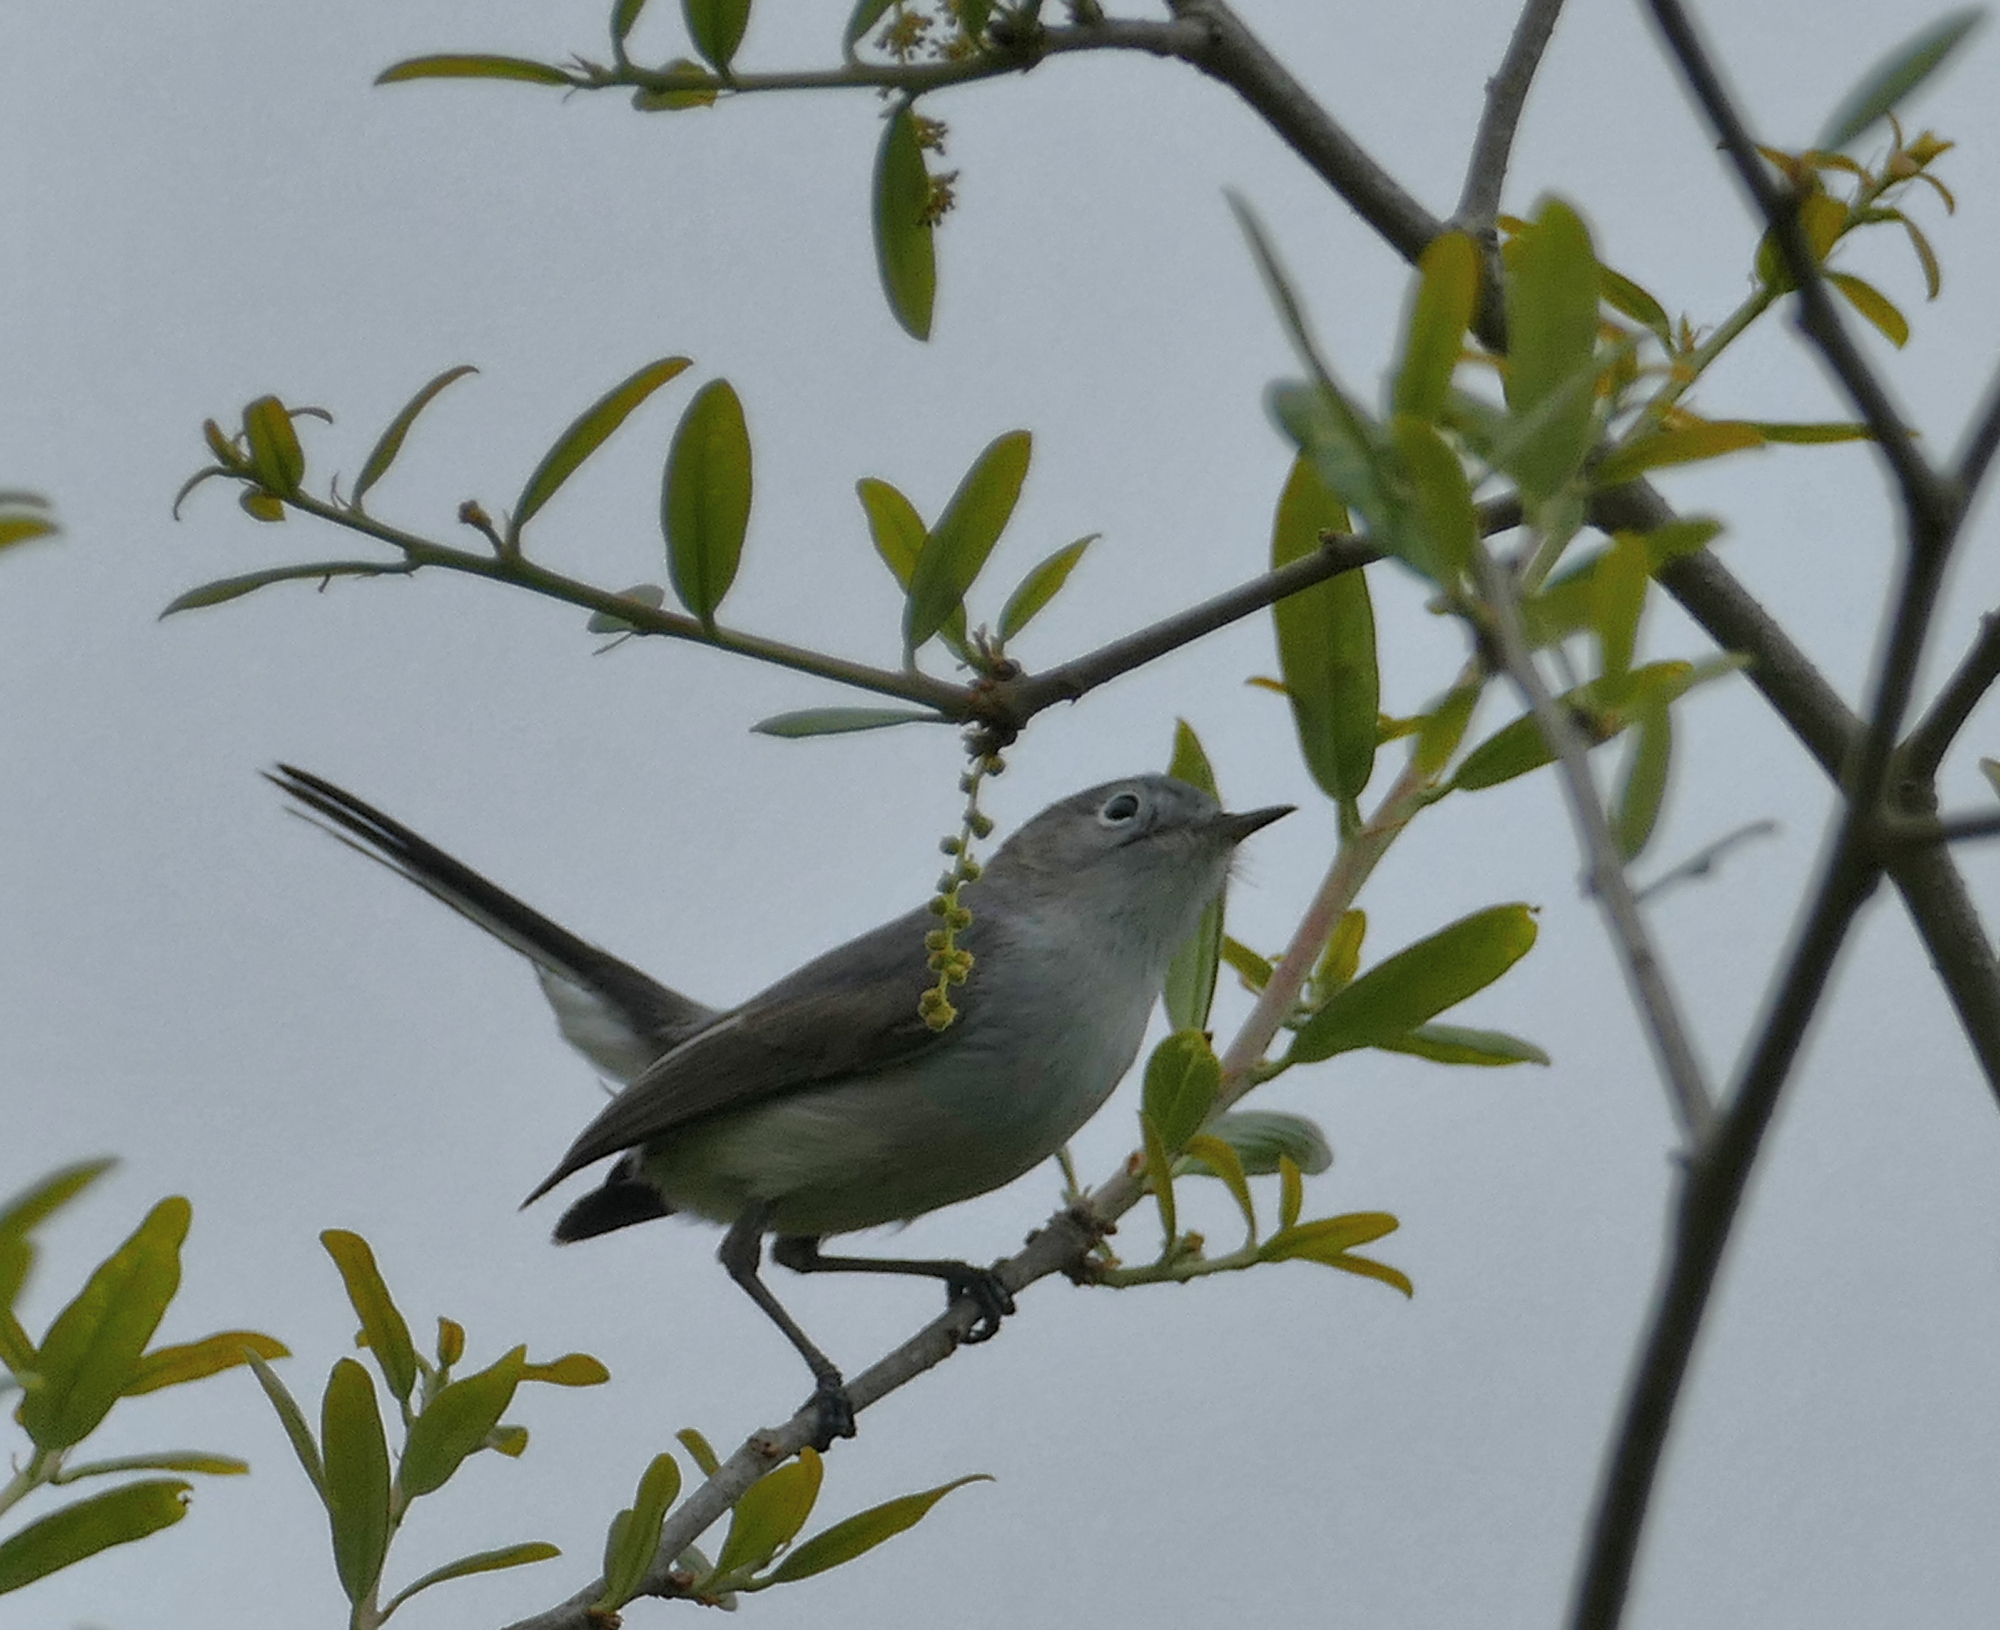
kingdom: Animalia
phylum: Chordata
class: Aves
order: Passeriformes
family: Polioptilidae
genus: Polioptila
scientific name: Polioptila caerulea
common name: Blue-gray gnatcatcher
